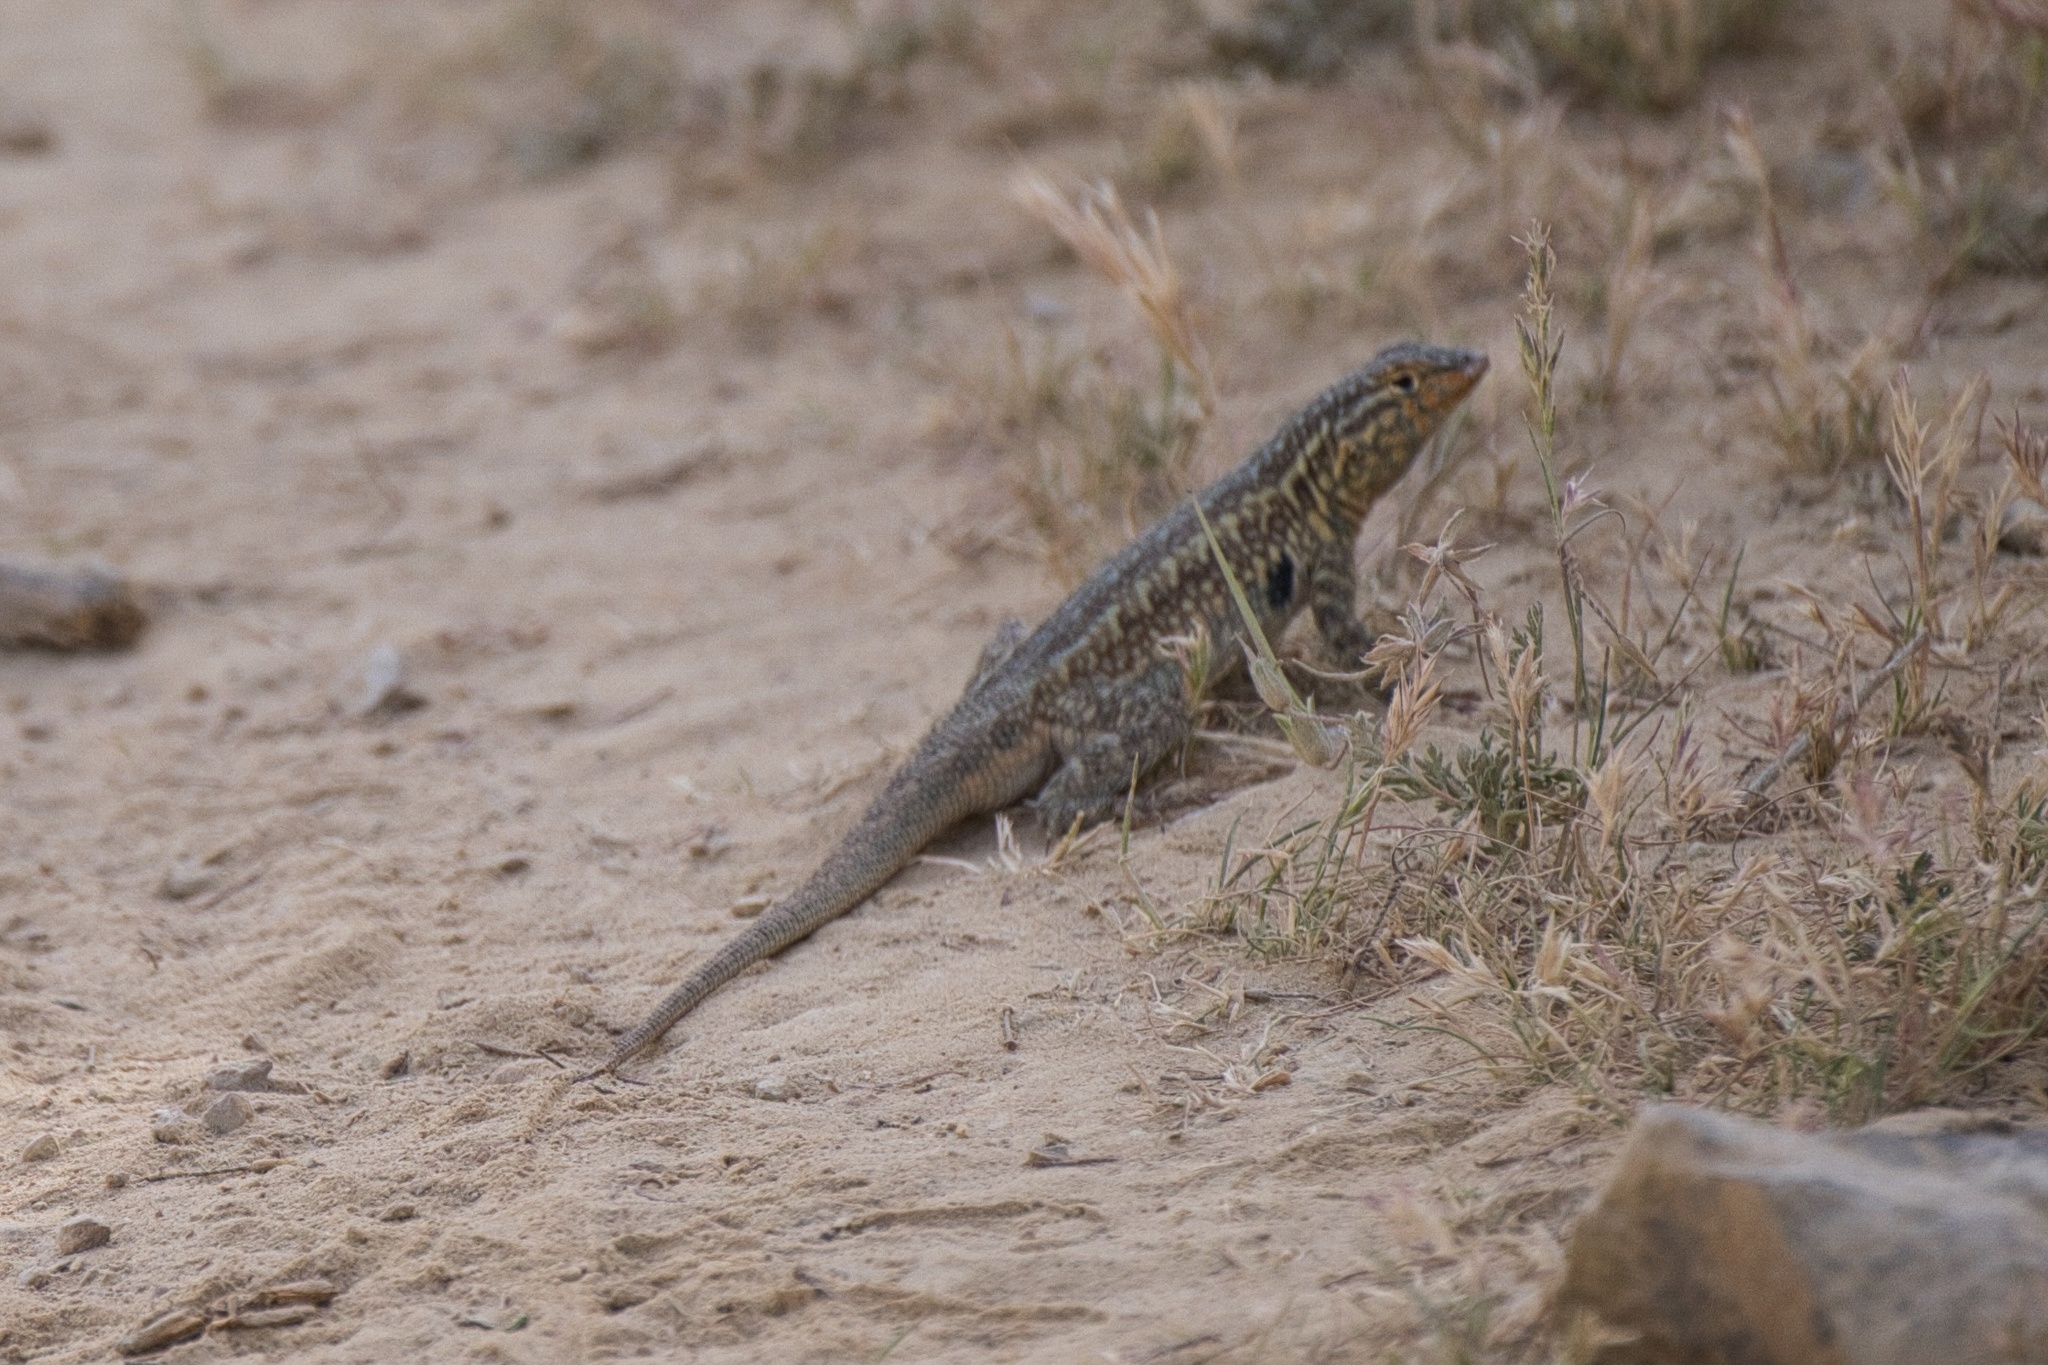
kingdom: Animalia
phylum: Chordata
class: Squamata
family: Phrynosomatidae
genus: Uta
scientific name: Uta stansburiana
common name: Side-blotched lizard
